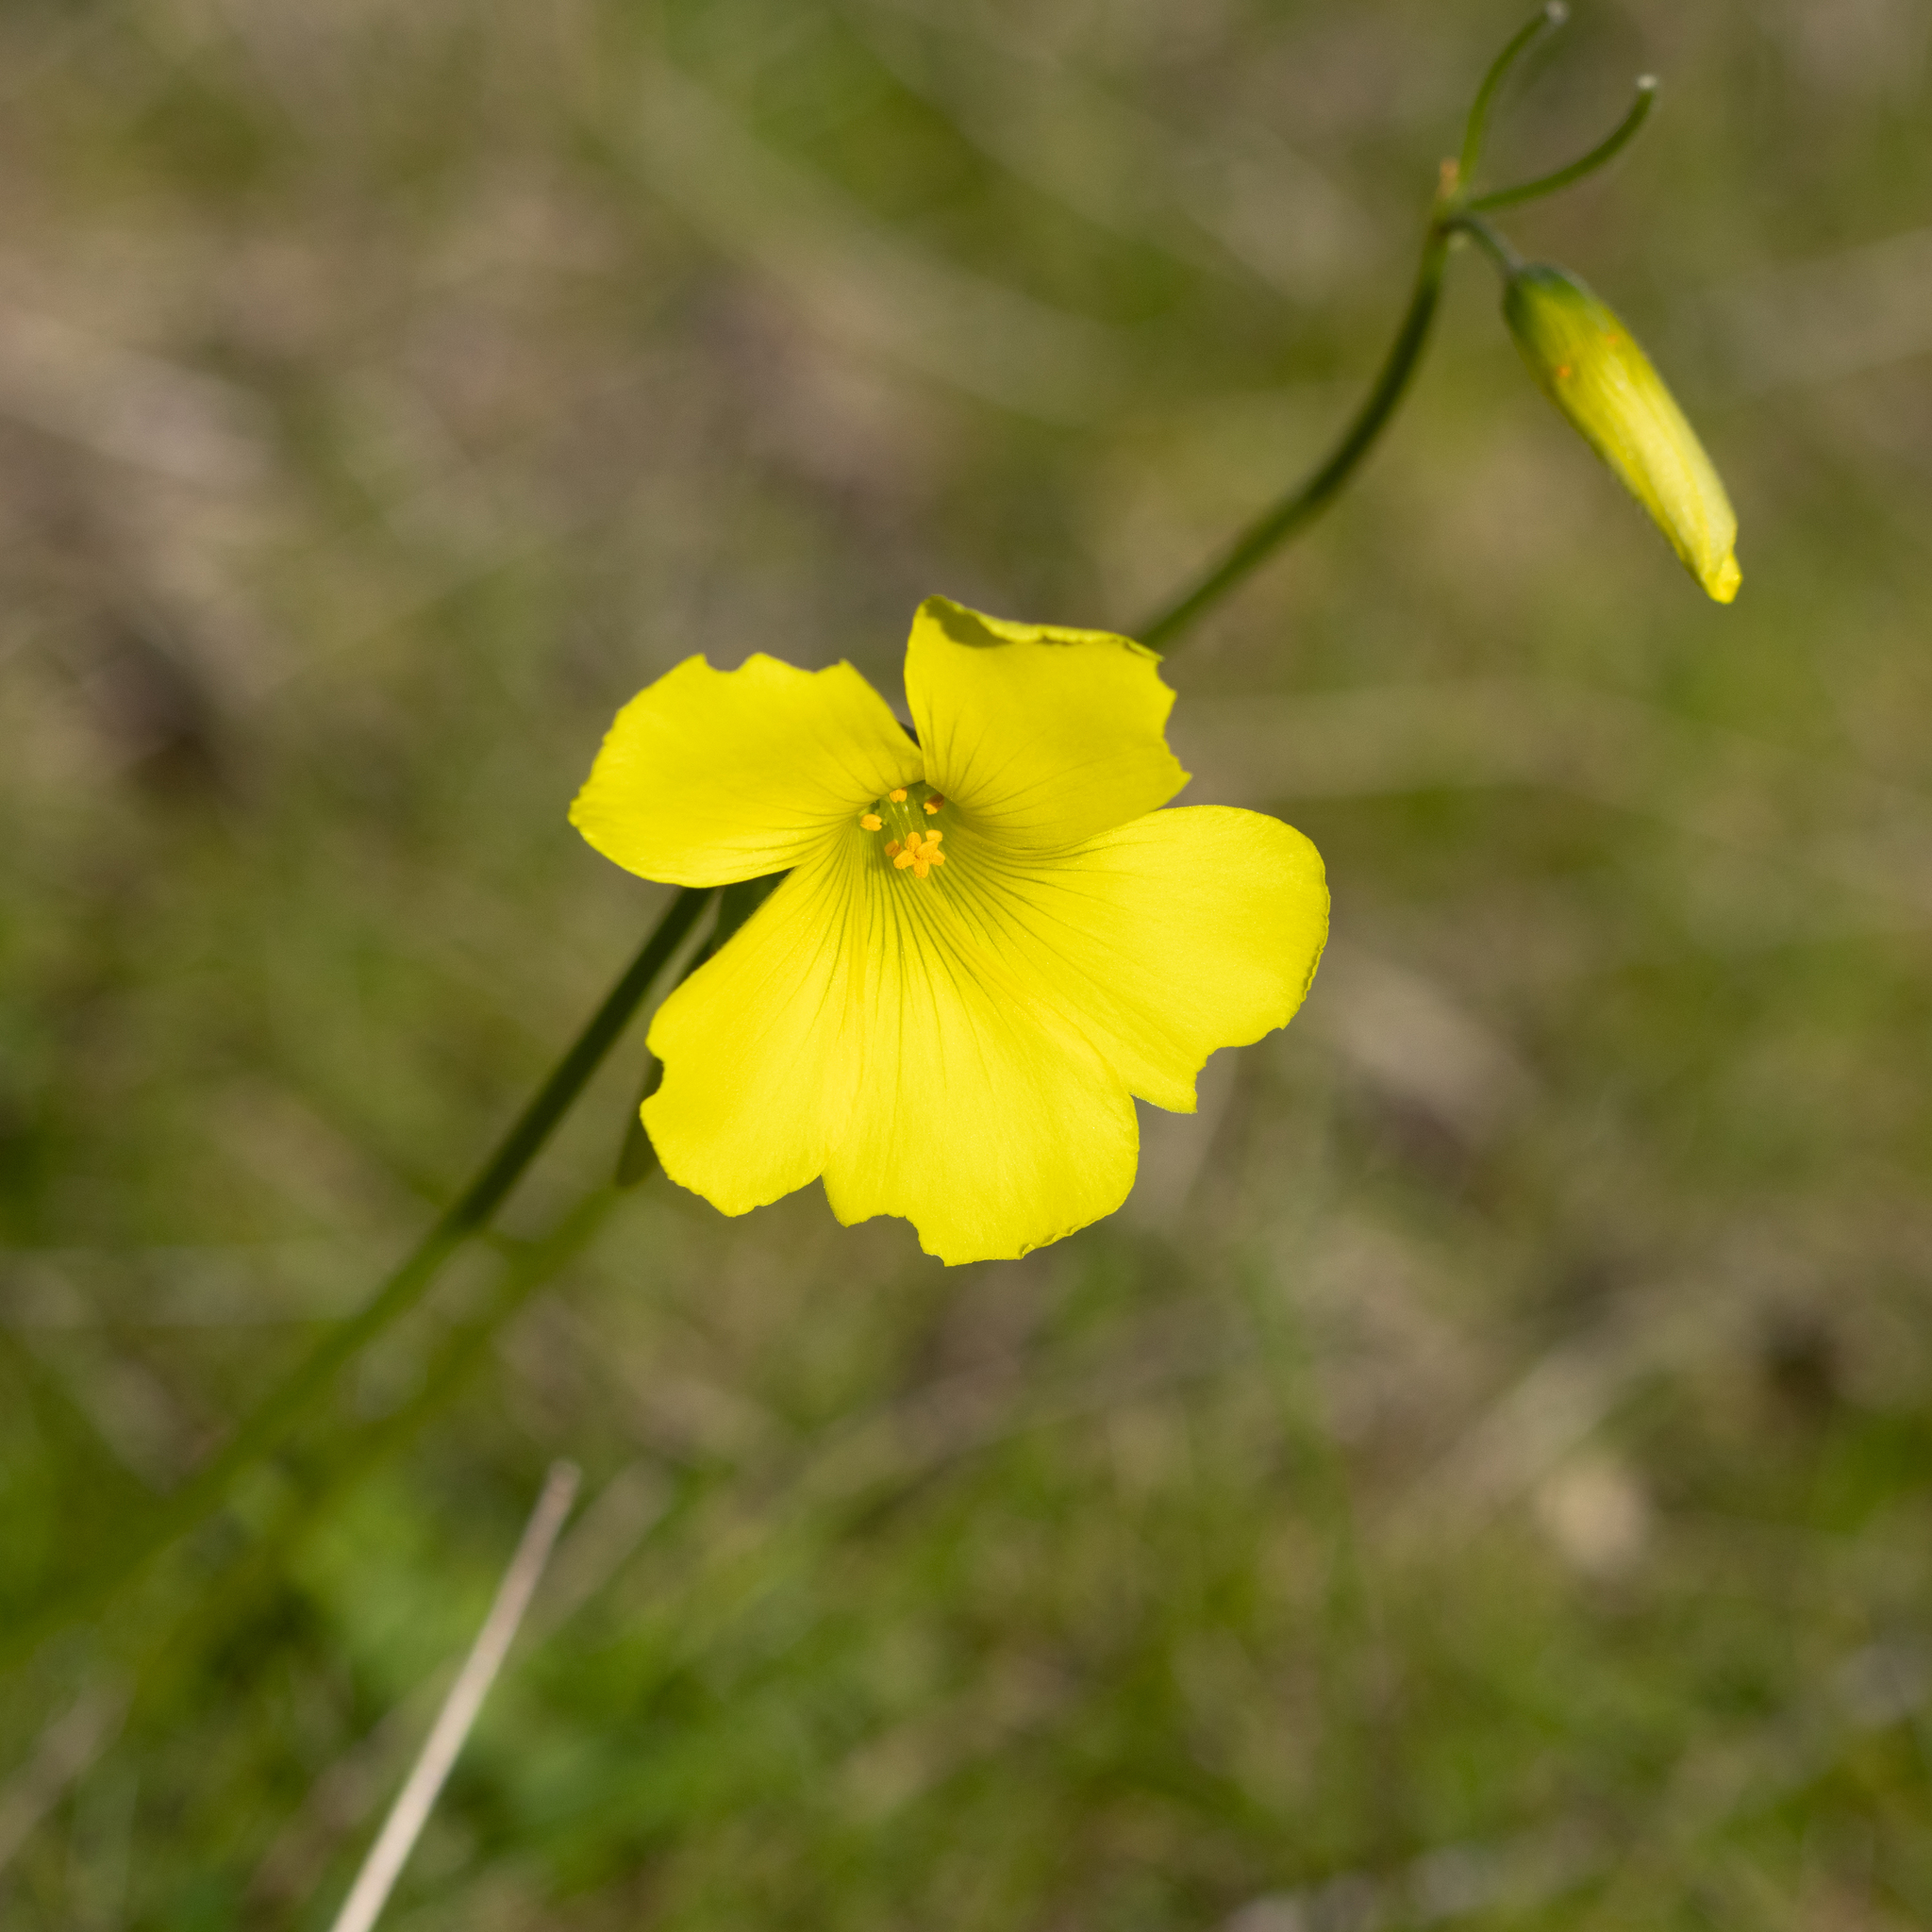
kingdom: Plantae
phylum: Tracheophyta
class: Magnoliopsida
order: Oxalidales
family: Oxalidaceae
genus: Oxalis
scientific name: Oxalis pes-caprae
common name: Bermuda-buttercup
